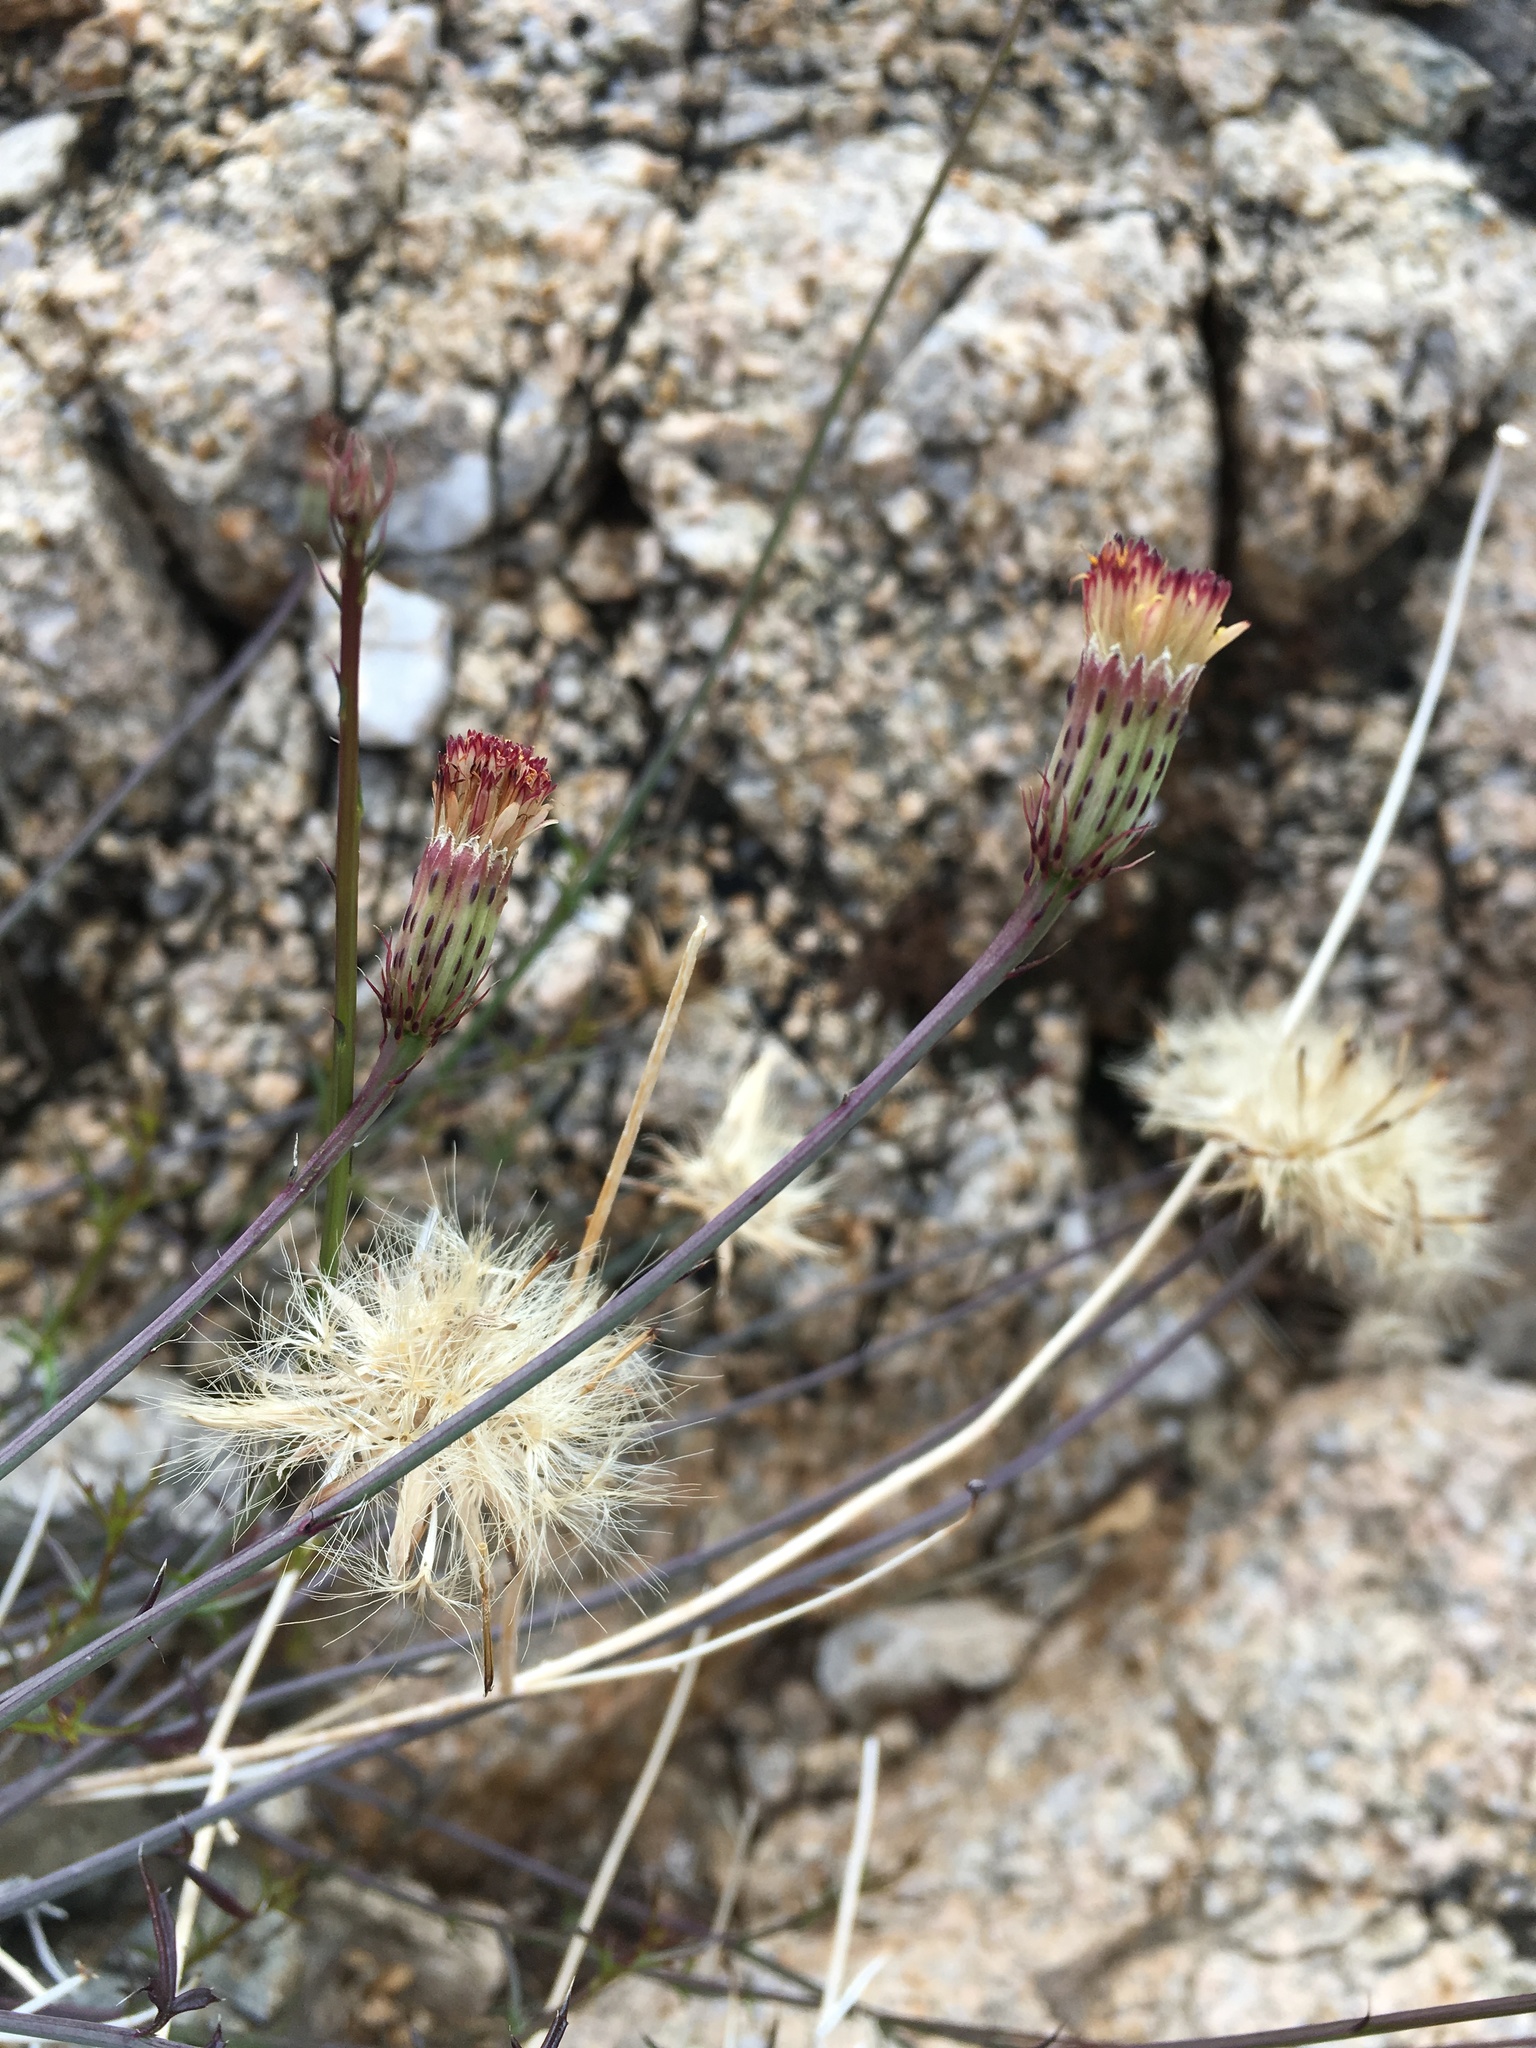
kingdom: Plantae
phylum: Tracheophyta
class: Magnoliopsida
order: Asterales
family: Asteraceae
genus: Adenophyllum
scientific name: Adenophyllum porophylloides
